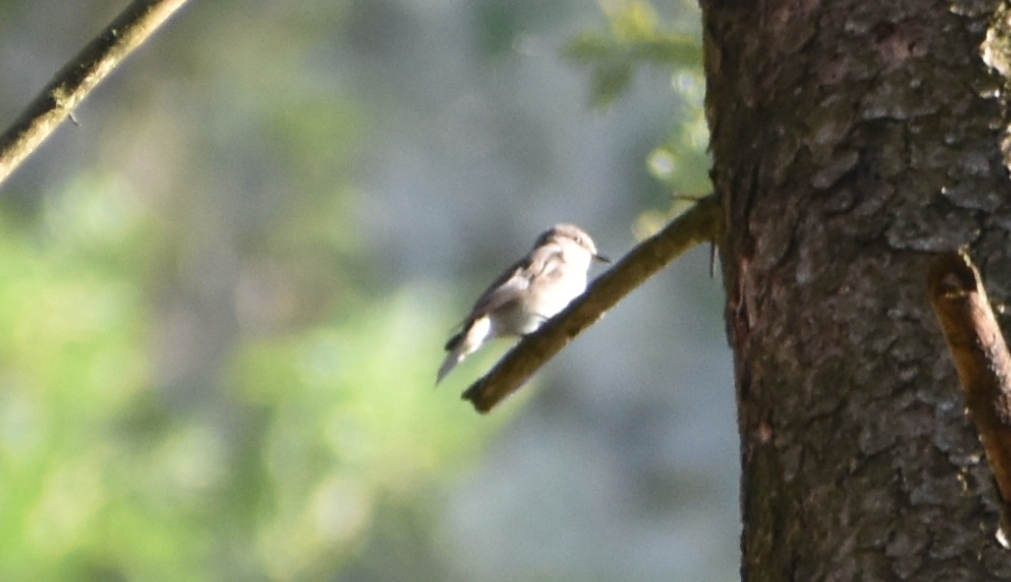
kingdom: Animalia
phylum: Chordata
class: Aves
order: Passeriformes
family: Muscicapidae
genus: Muscicapa
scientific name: Muscicapa striata
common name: Spotted flycatcher
